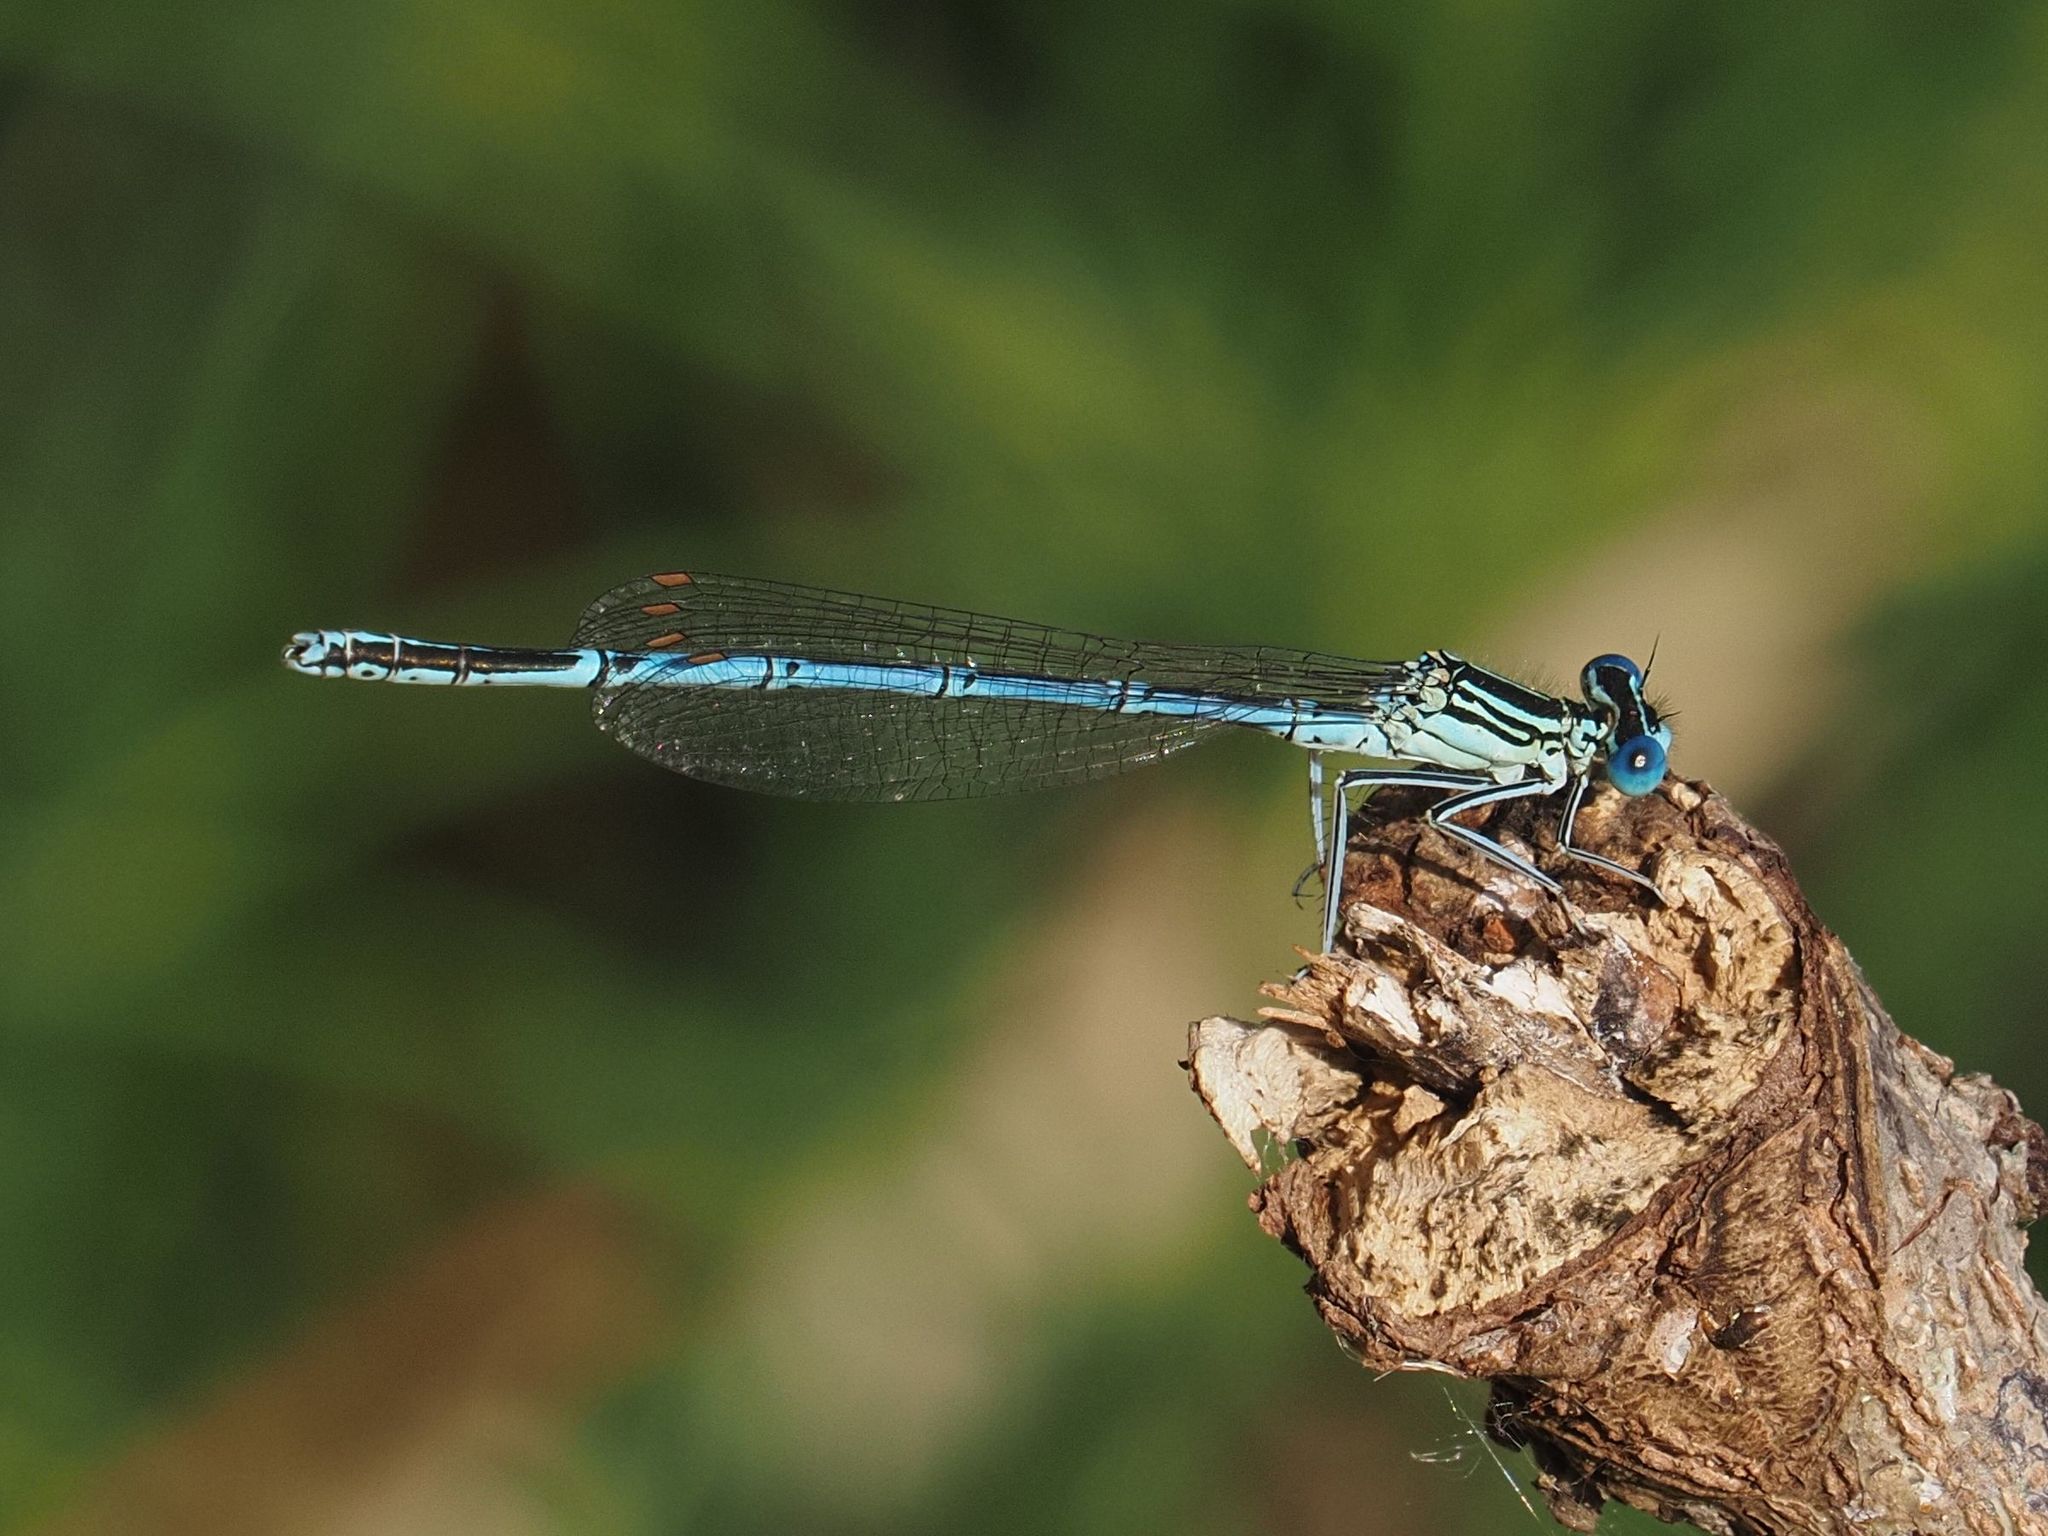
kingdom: Animalia
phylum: Arthropoda
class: Insecta
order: Odonata
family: Platycnemididae
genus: Platycnemis
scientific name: Platycnemis pennipes
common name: White-legged damselfly
